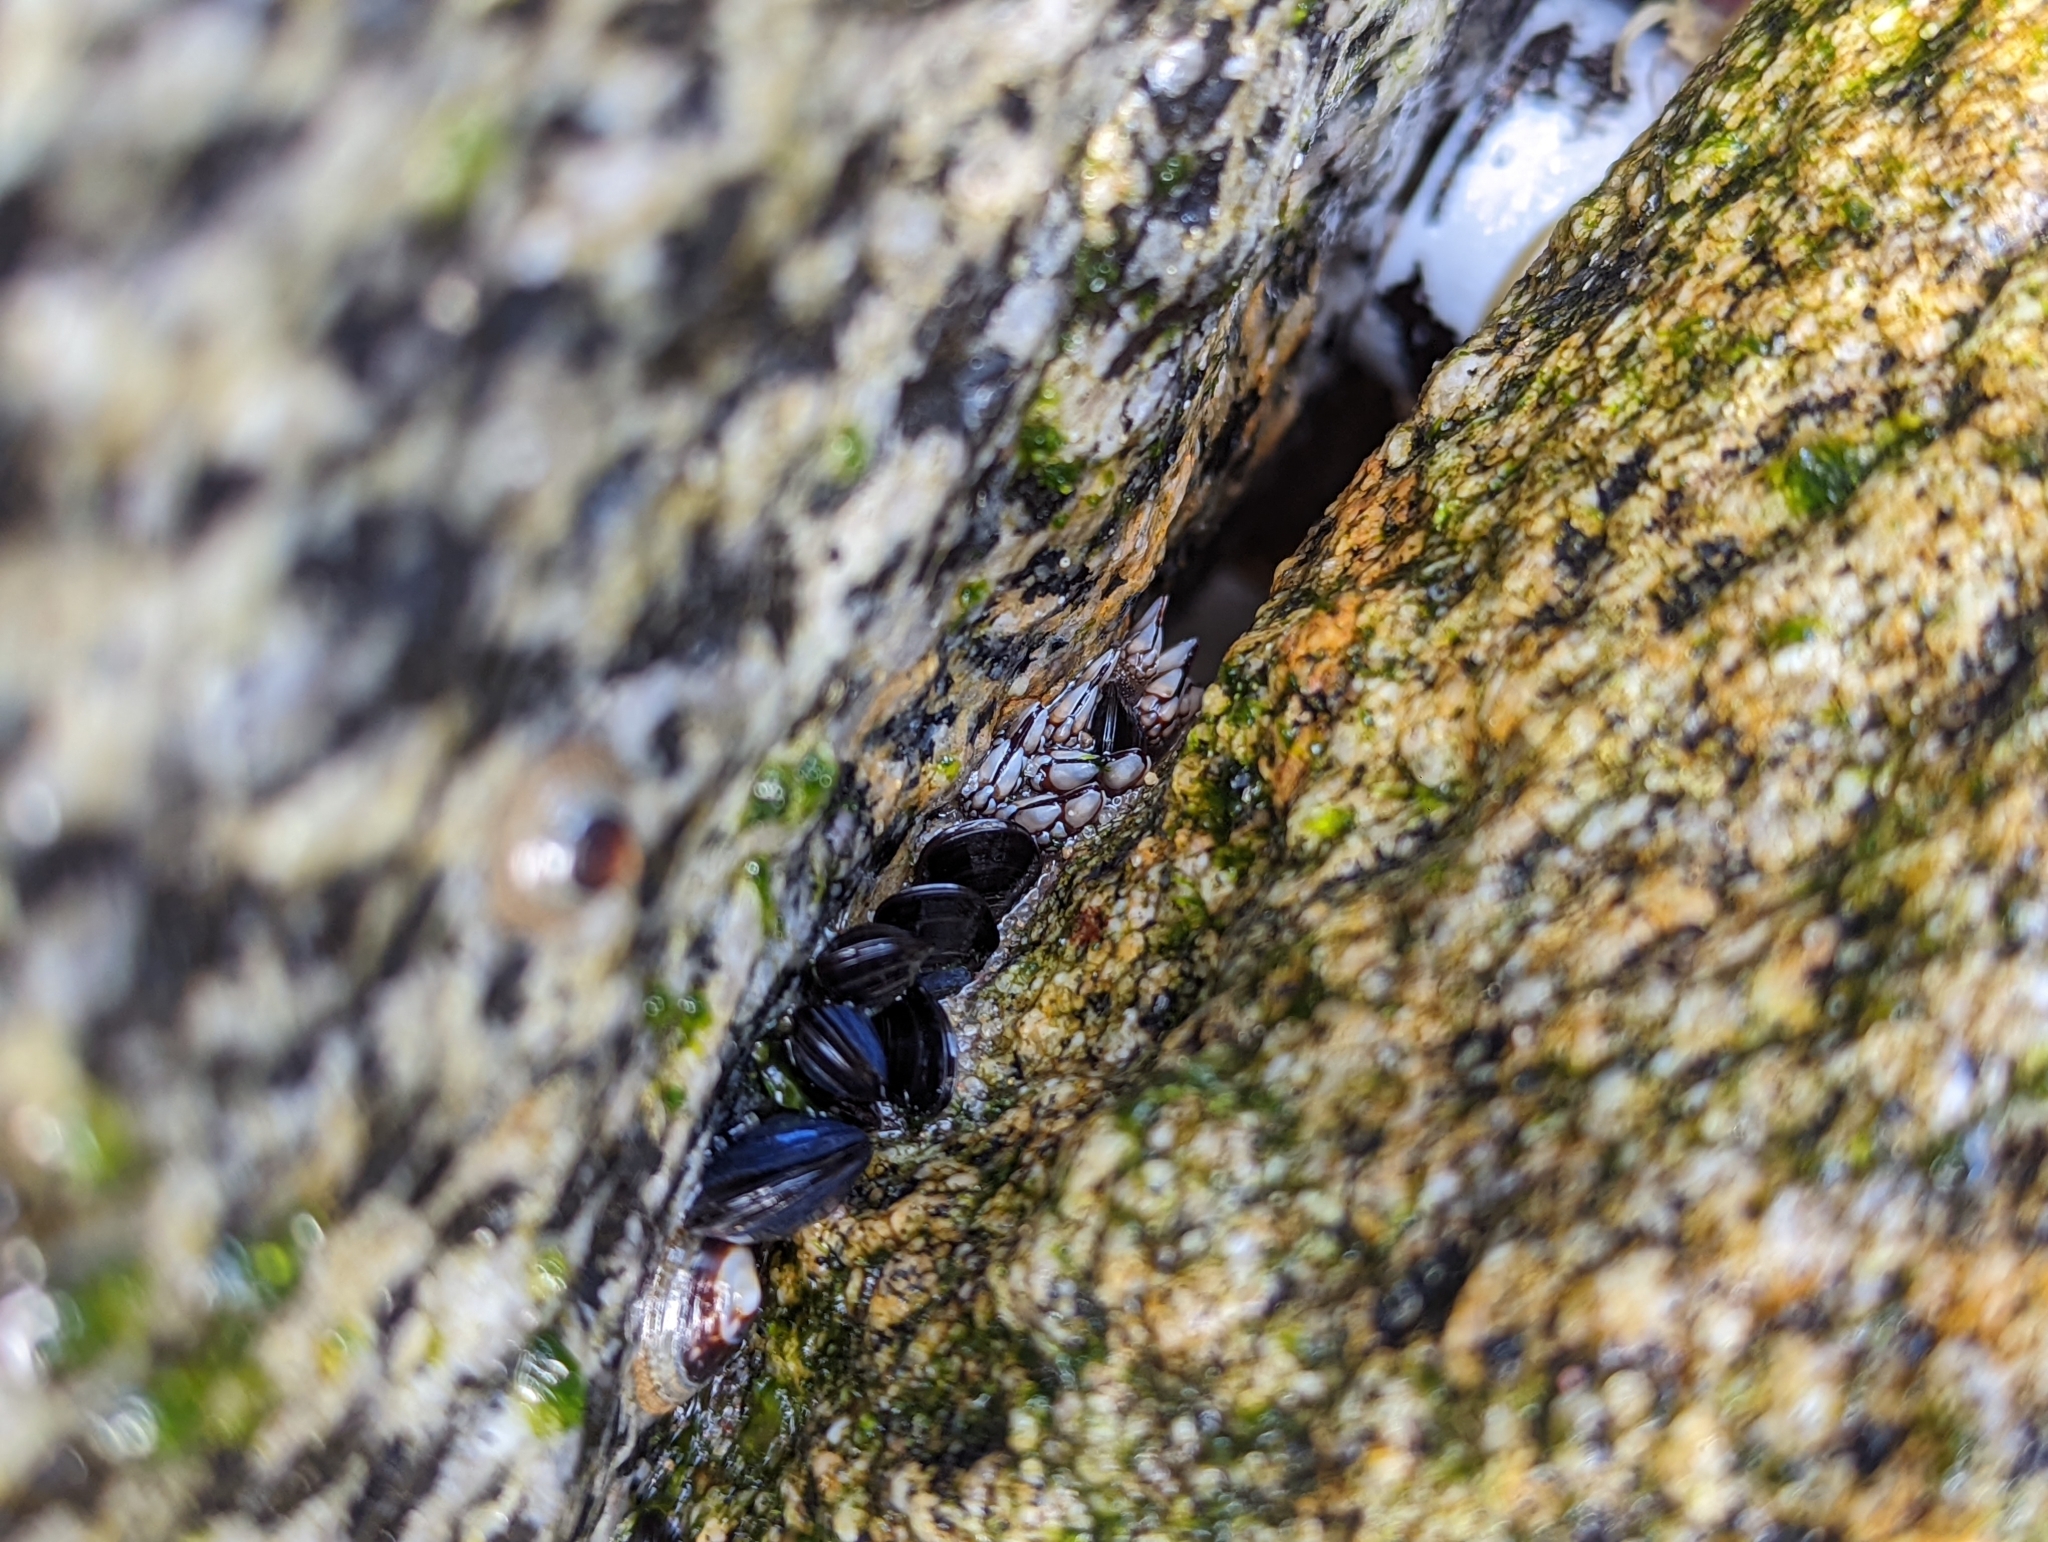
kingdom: Animalia
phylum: Arthropoda
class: Maxillopoda
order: Pedunculata
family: Pollicipedidae
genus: Pollicipes
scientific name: Pollicipes polymerus
